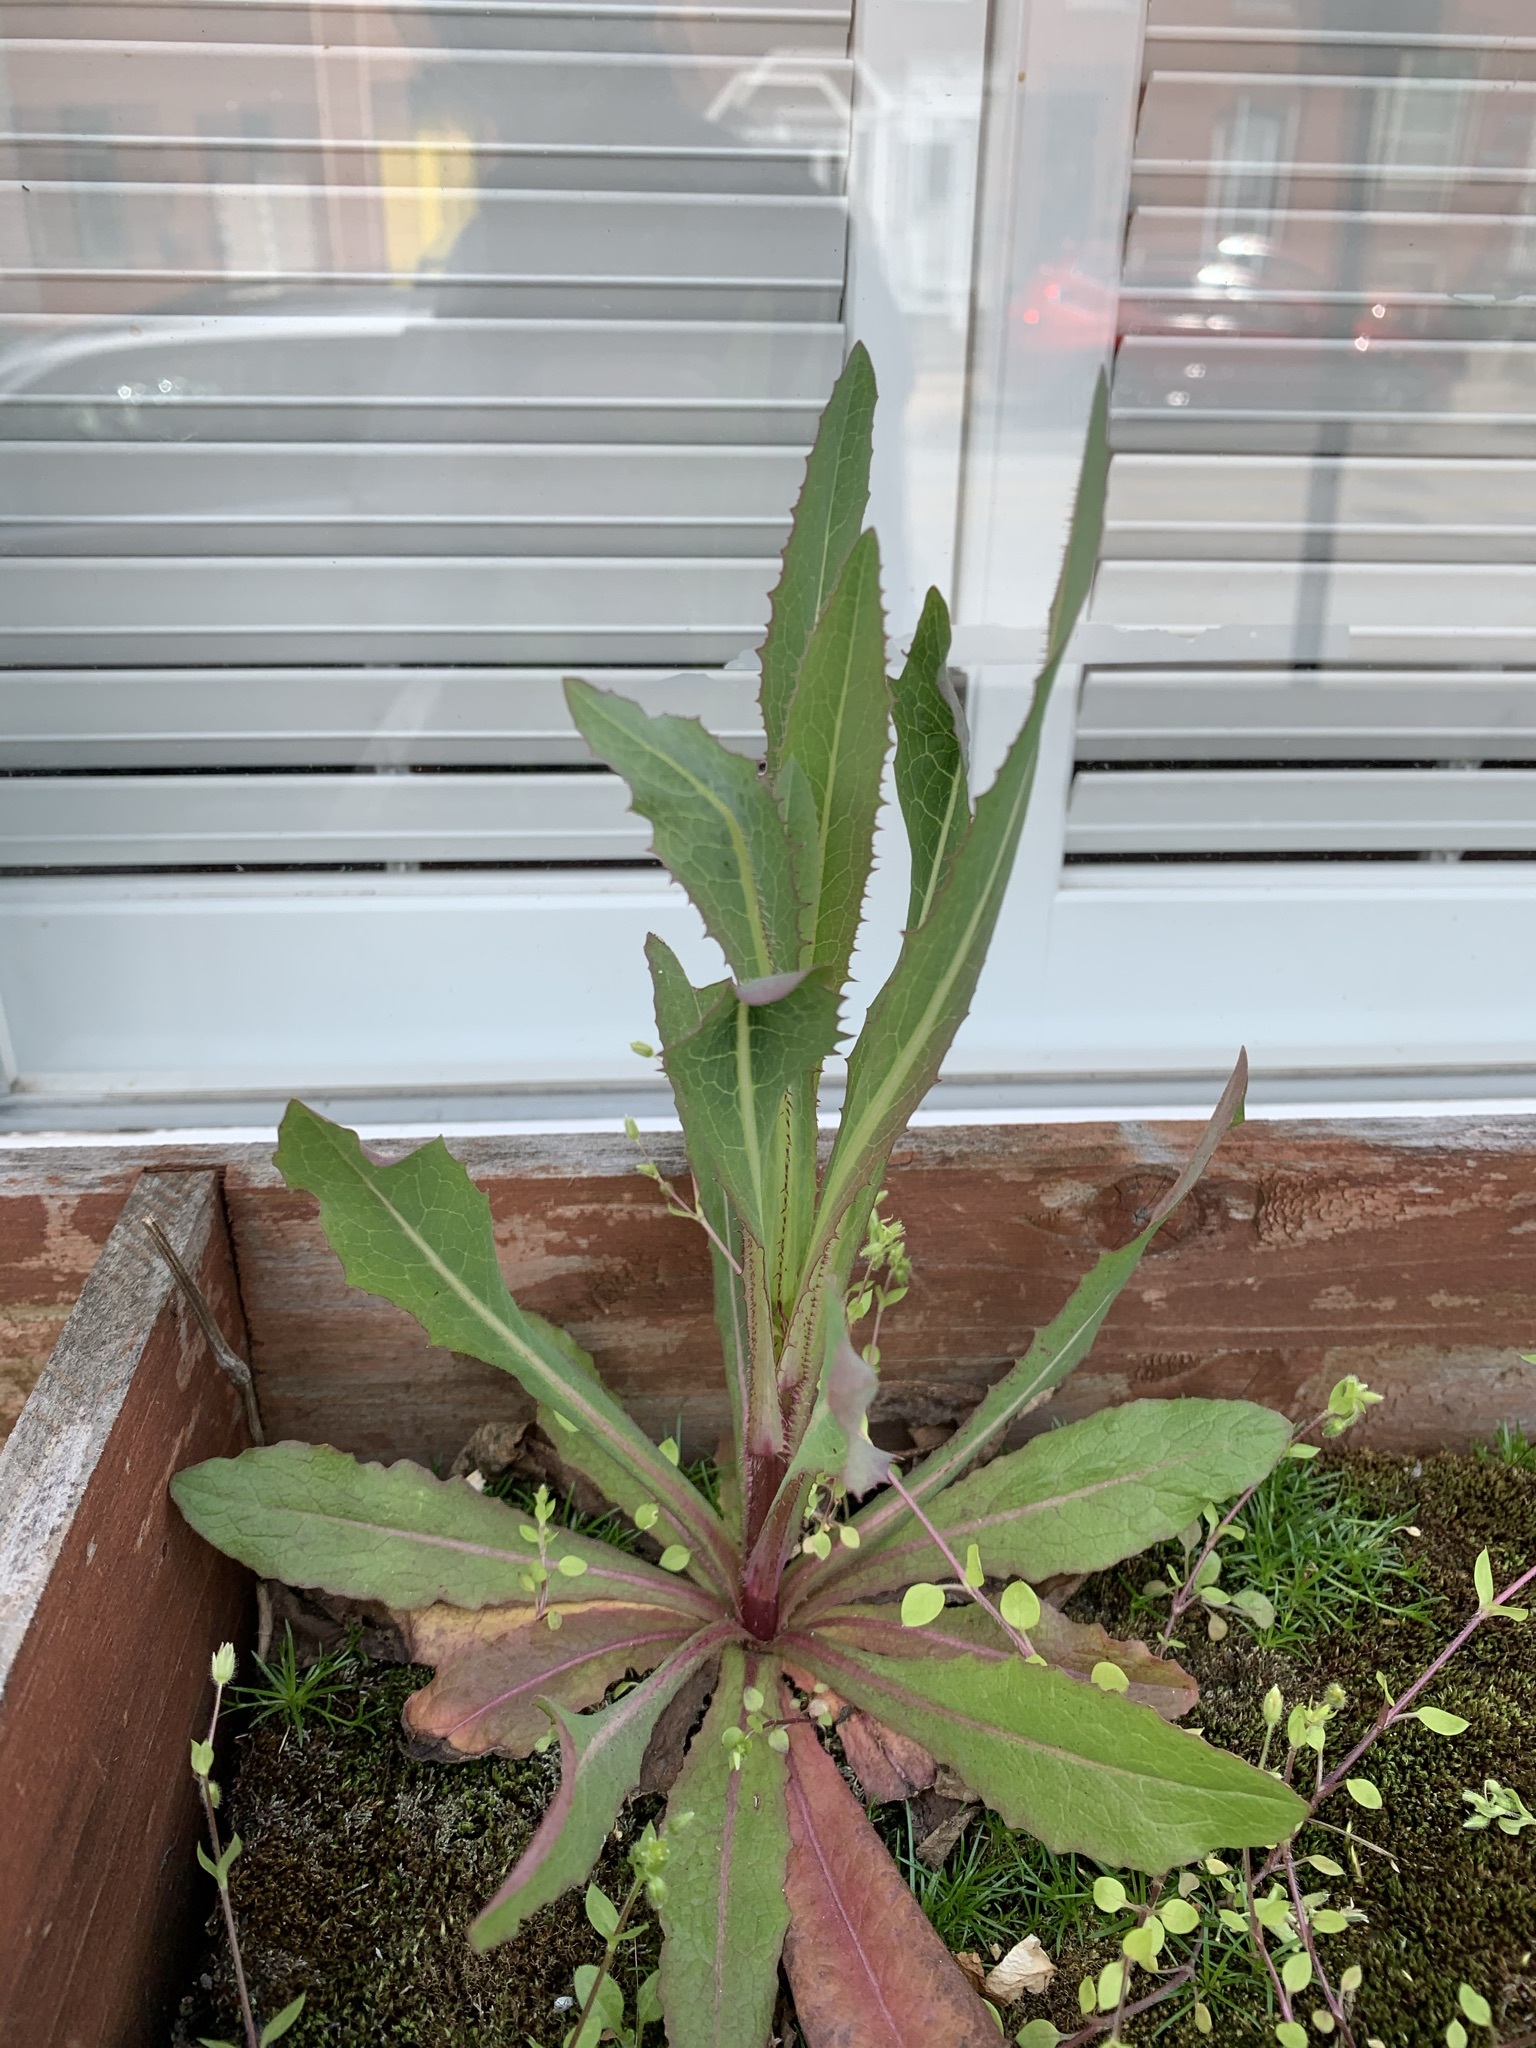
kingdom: Plantae
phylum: Tracheophyta
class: Magnoliopsida
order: Asterales
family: Asteraceae
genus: Lactuca
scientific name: Lactuca serriola
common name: Prickly lettuce
